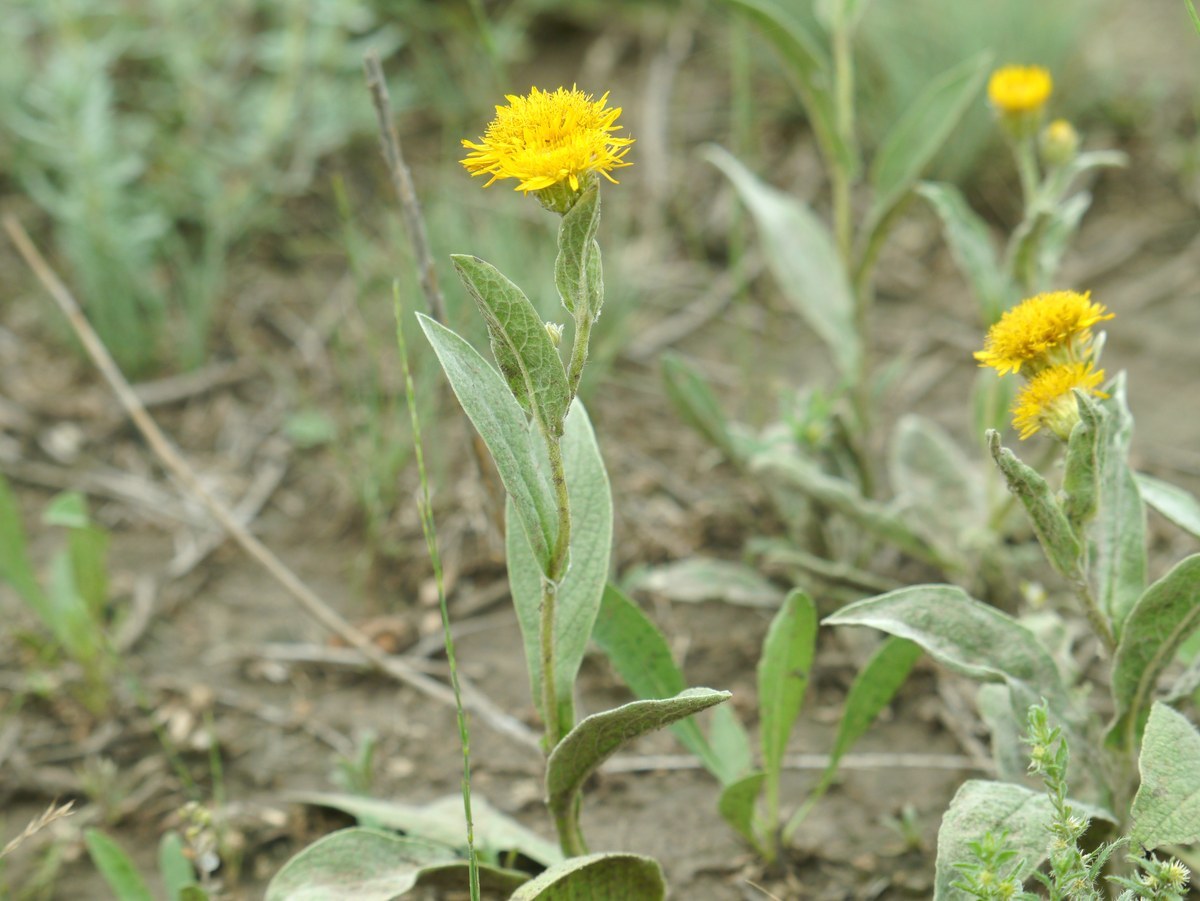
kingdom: Plantae
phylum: Tracheophyta
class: Magnoliopsida
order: Asterales
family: Asteraceae
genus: Pentanema
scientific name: Pentanema oculus-christi
